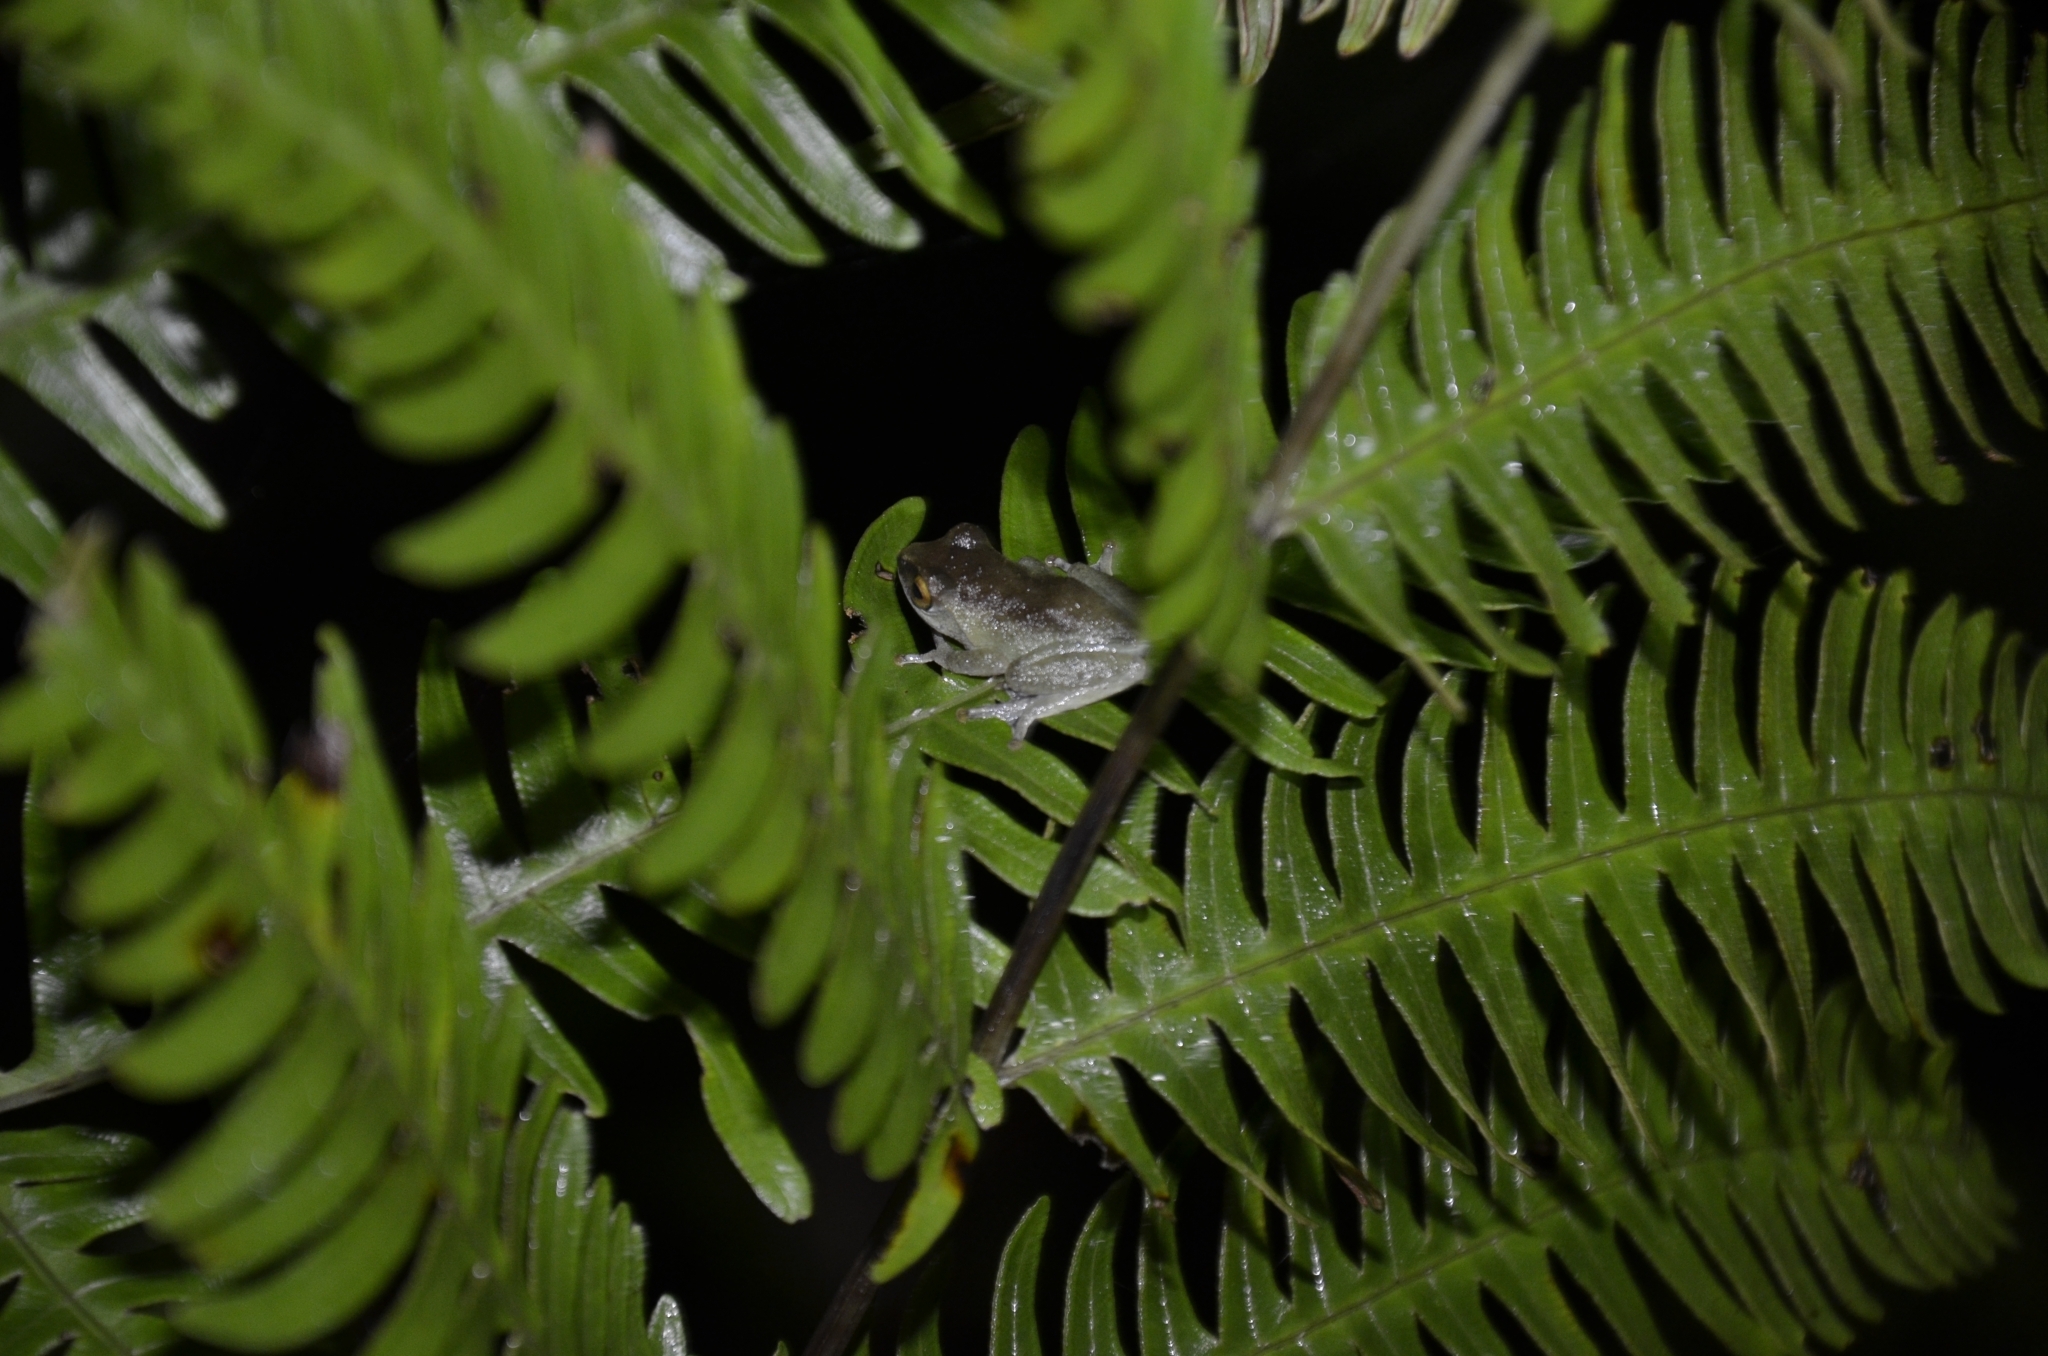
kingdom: Animalia
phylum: Chordata
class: Amphibia
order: Anura
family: Rhacophoridae
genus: Raorchestes
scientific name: Raorchestes akroparallagi
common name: Variable bush frog
